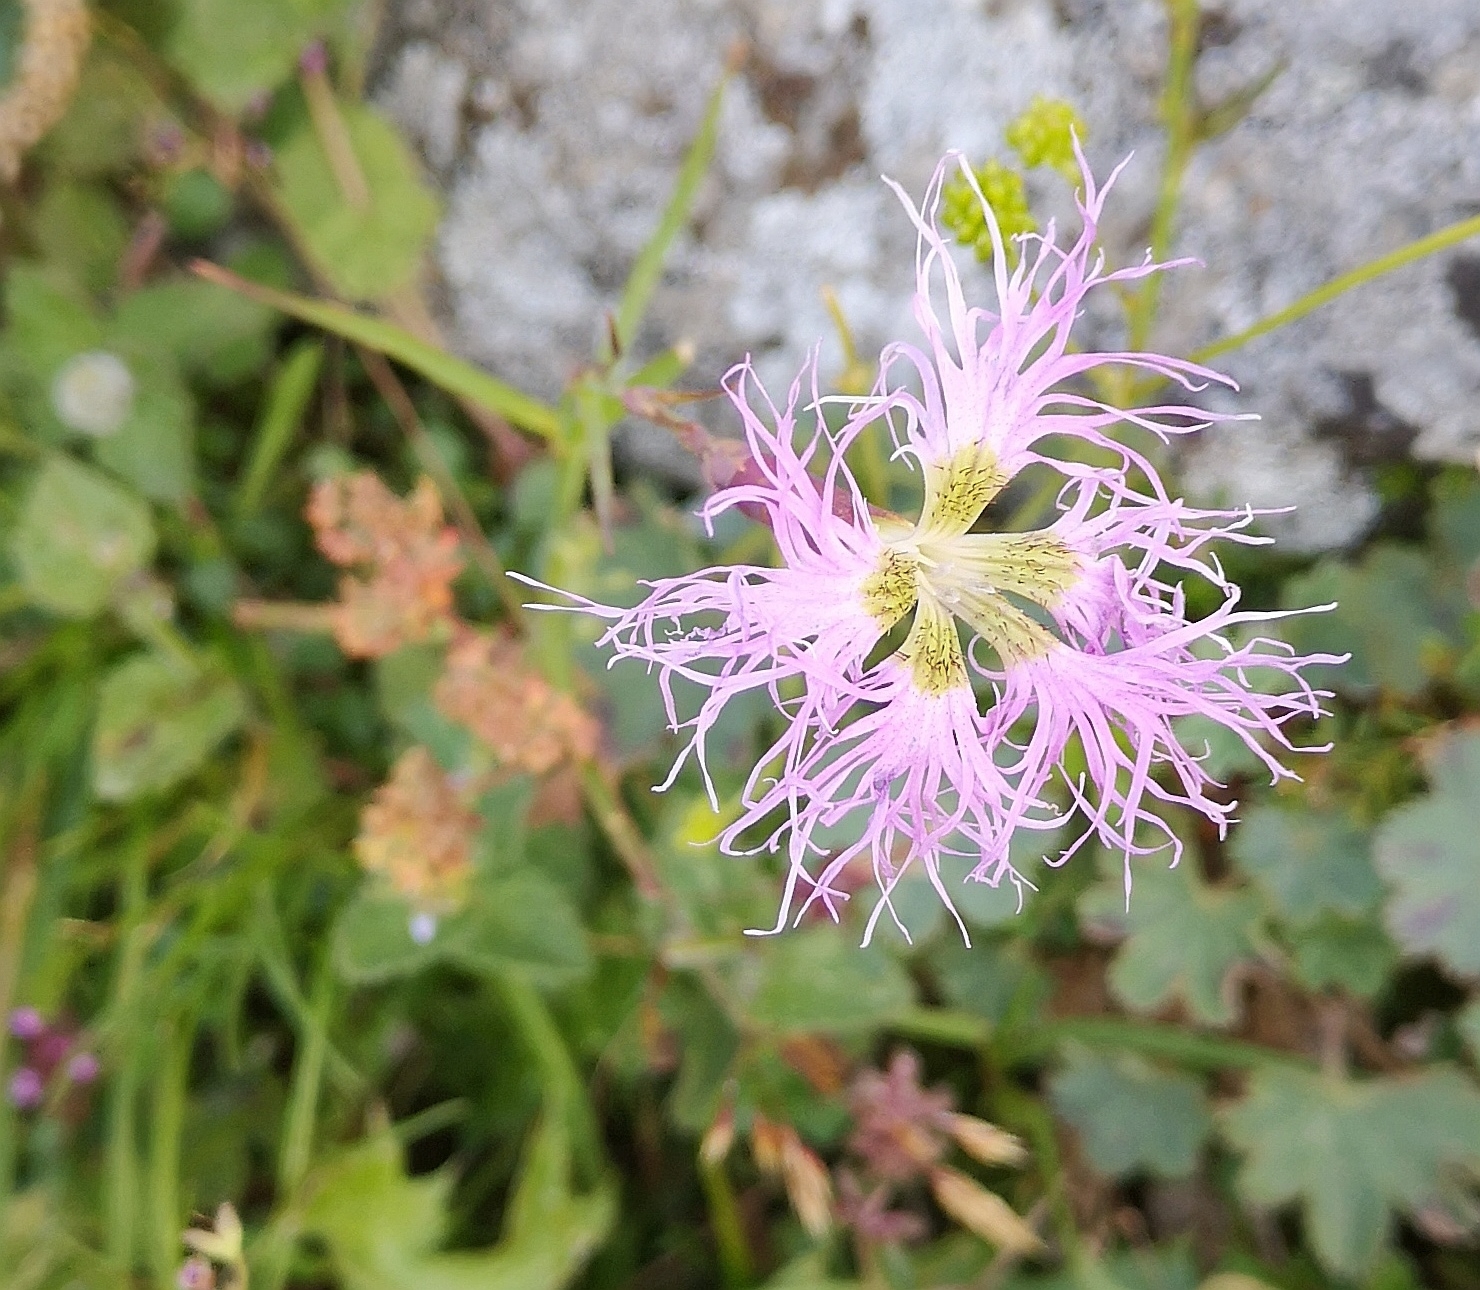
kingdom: Plantae
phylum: Tracheophyta
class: Magnoliopsida
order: Caryophyllales
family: Caryophyllaceae
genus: Dianthus
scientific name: Dianthus superbus
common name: Fringed pink
